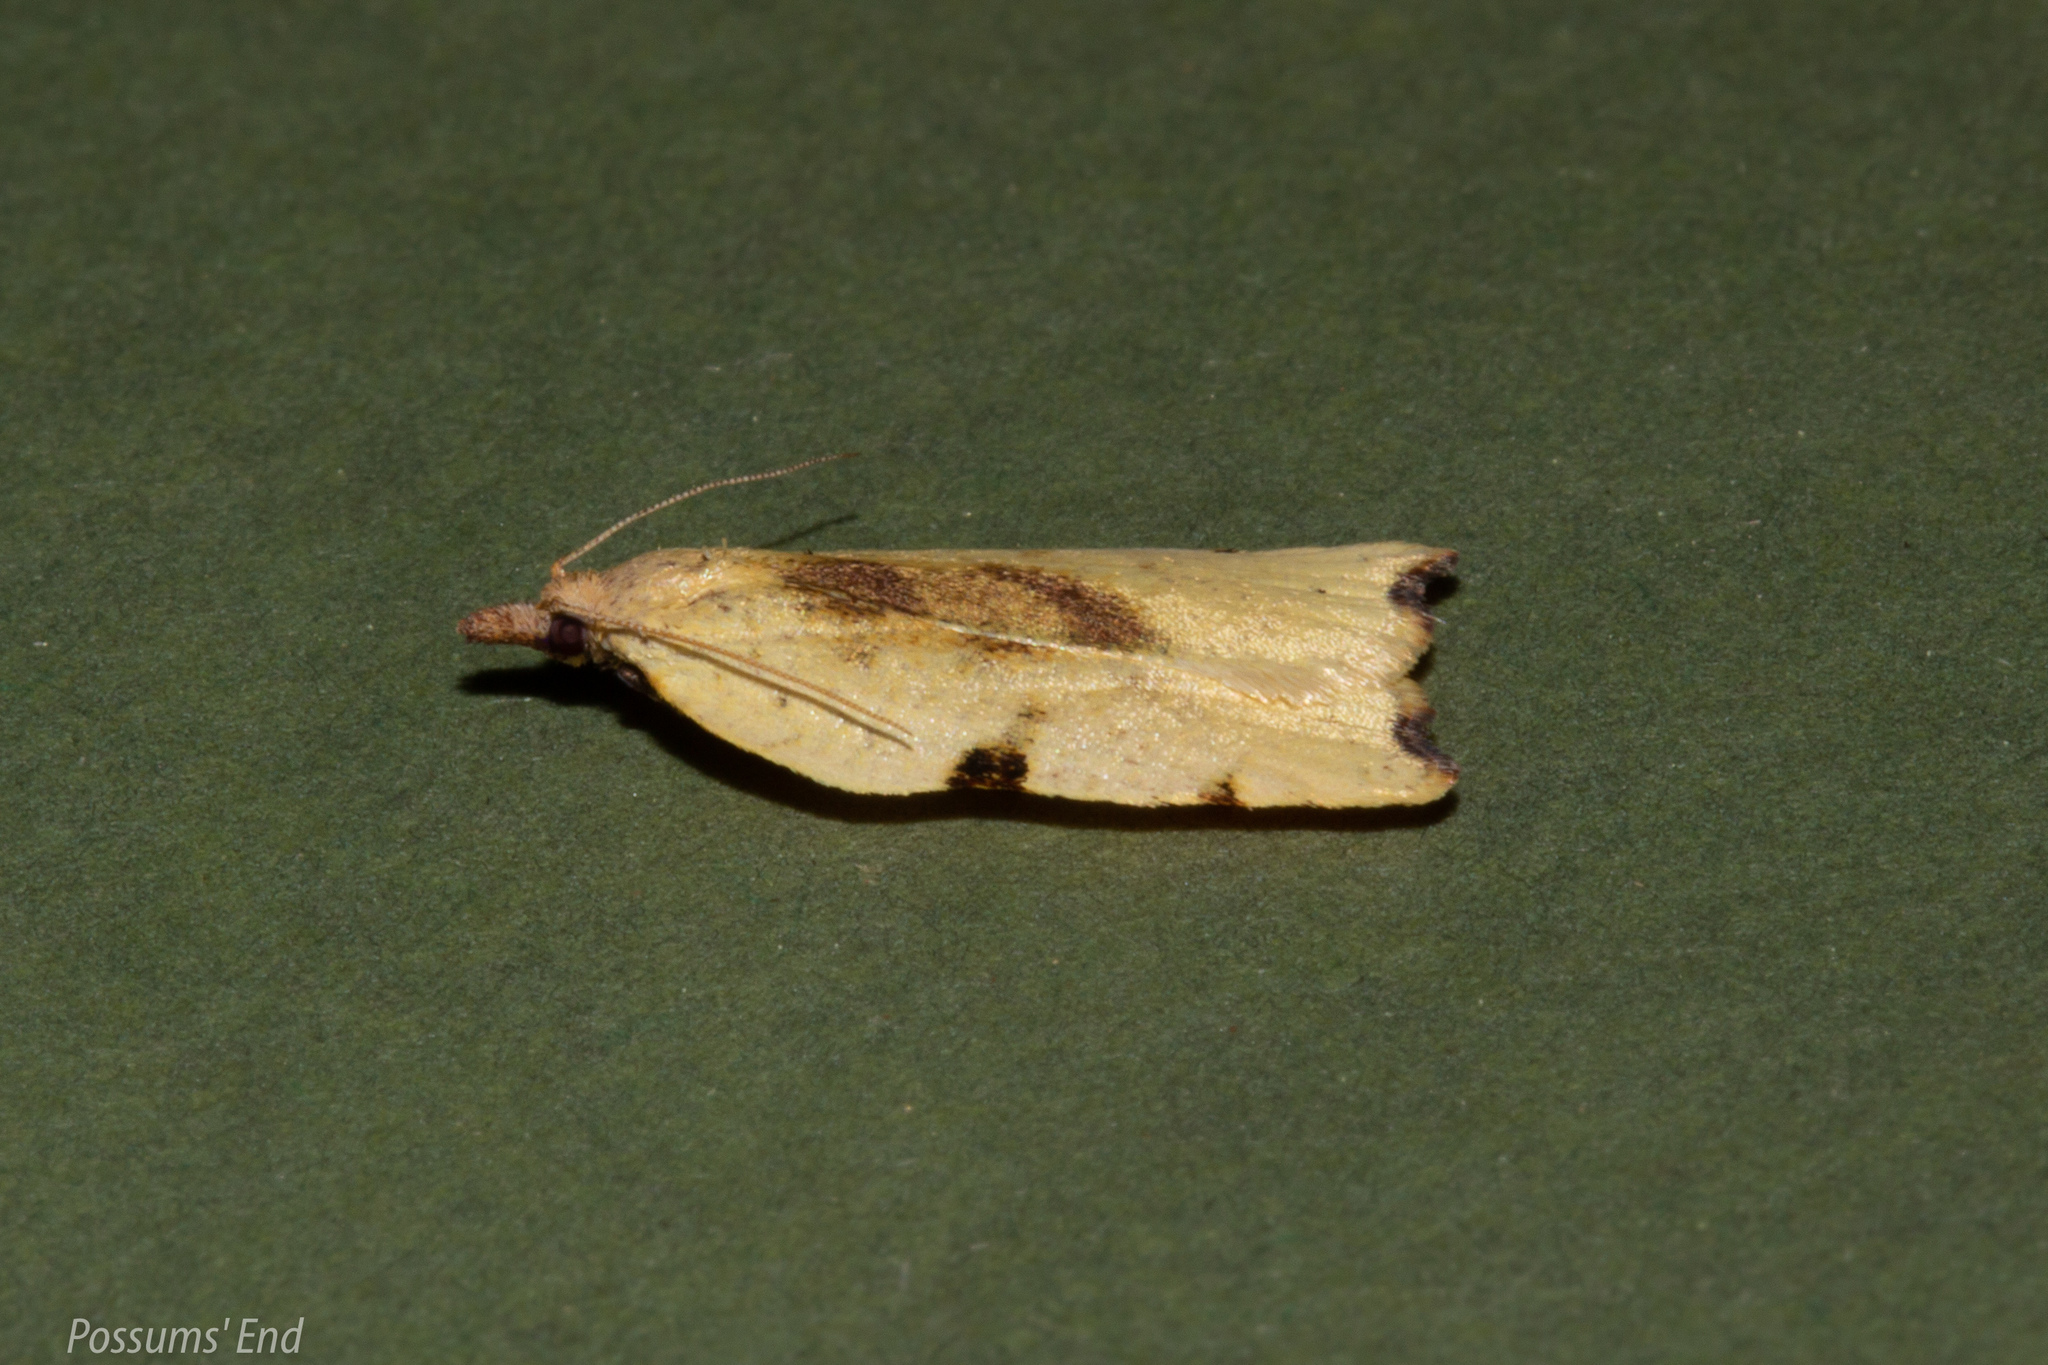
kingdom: Animalia
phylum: Arthropoda
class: Insecta
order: Lepidoptera
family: Tortricidae
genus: Apoctena
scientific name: Apoctena flavescens
